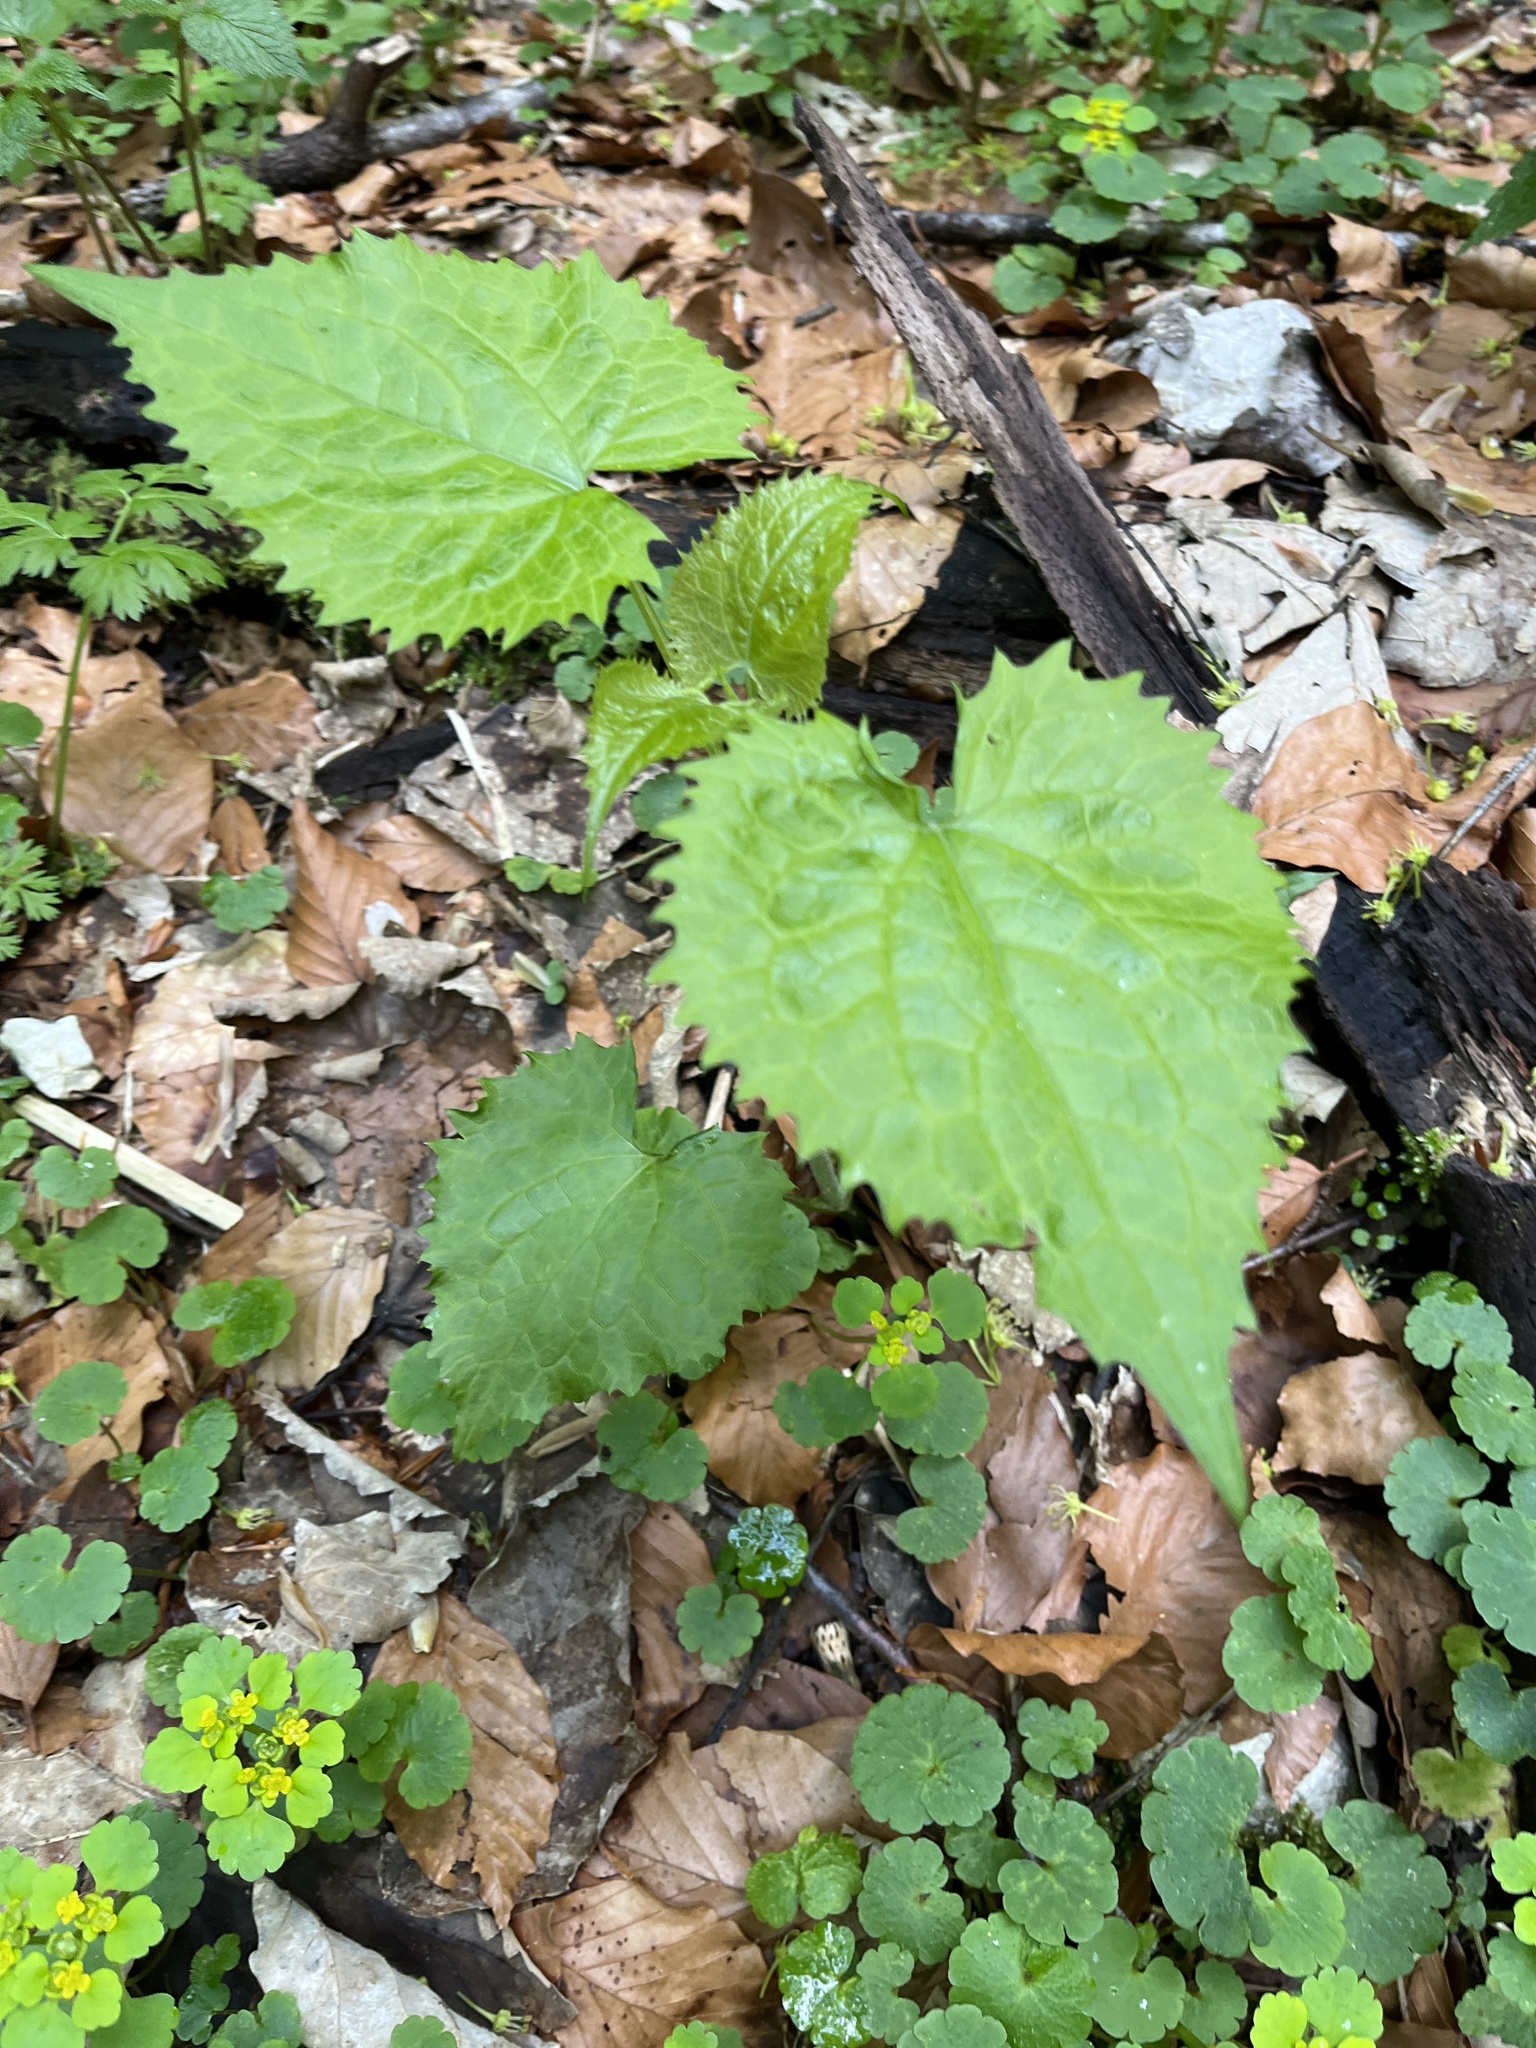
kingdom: Plantae
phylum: Tracheophyta
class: Magnoliopsida
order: Brassicales
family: Brassicaceae
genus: Lunaria
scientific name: Lunaria rediviva
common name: Perennial honesty
